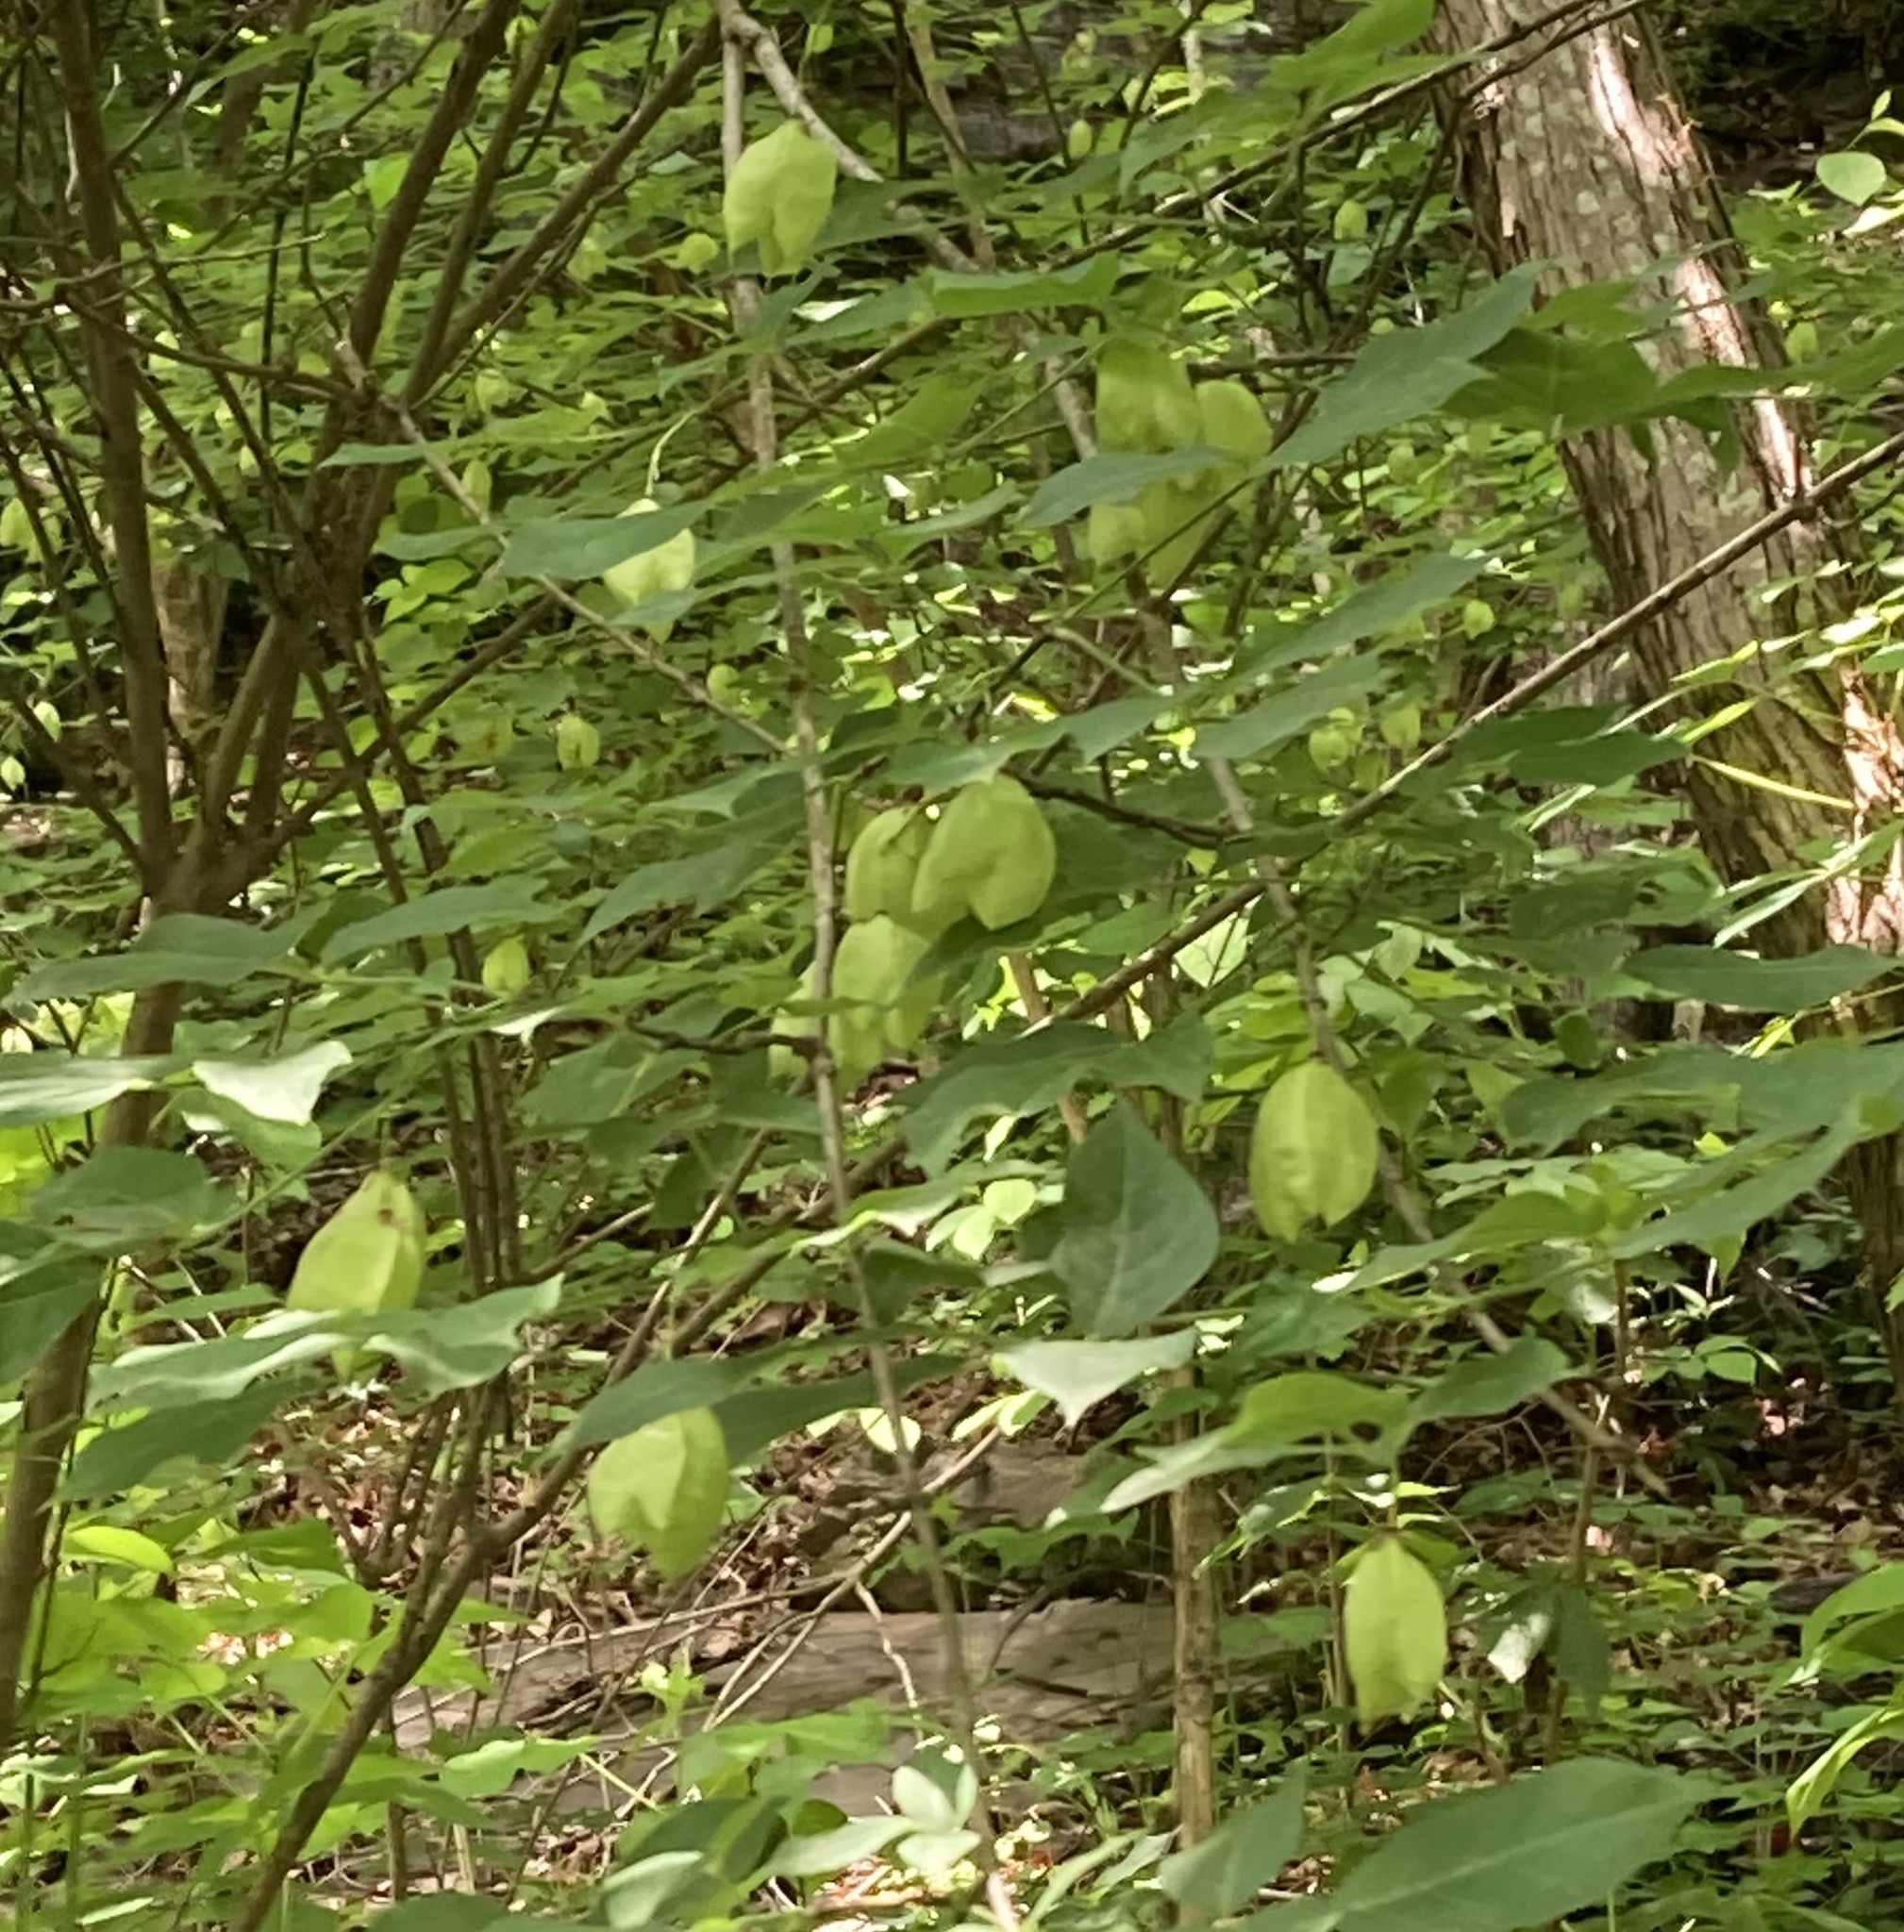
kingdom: Plantae
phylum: Tracheophyta
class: Magnoliopsida
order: Crossosomatales
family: Staphyleaceae
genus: Staphylea
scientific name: Staphylea trifolia
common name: American bladdernut
